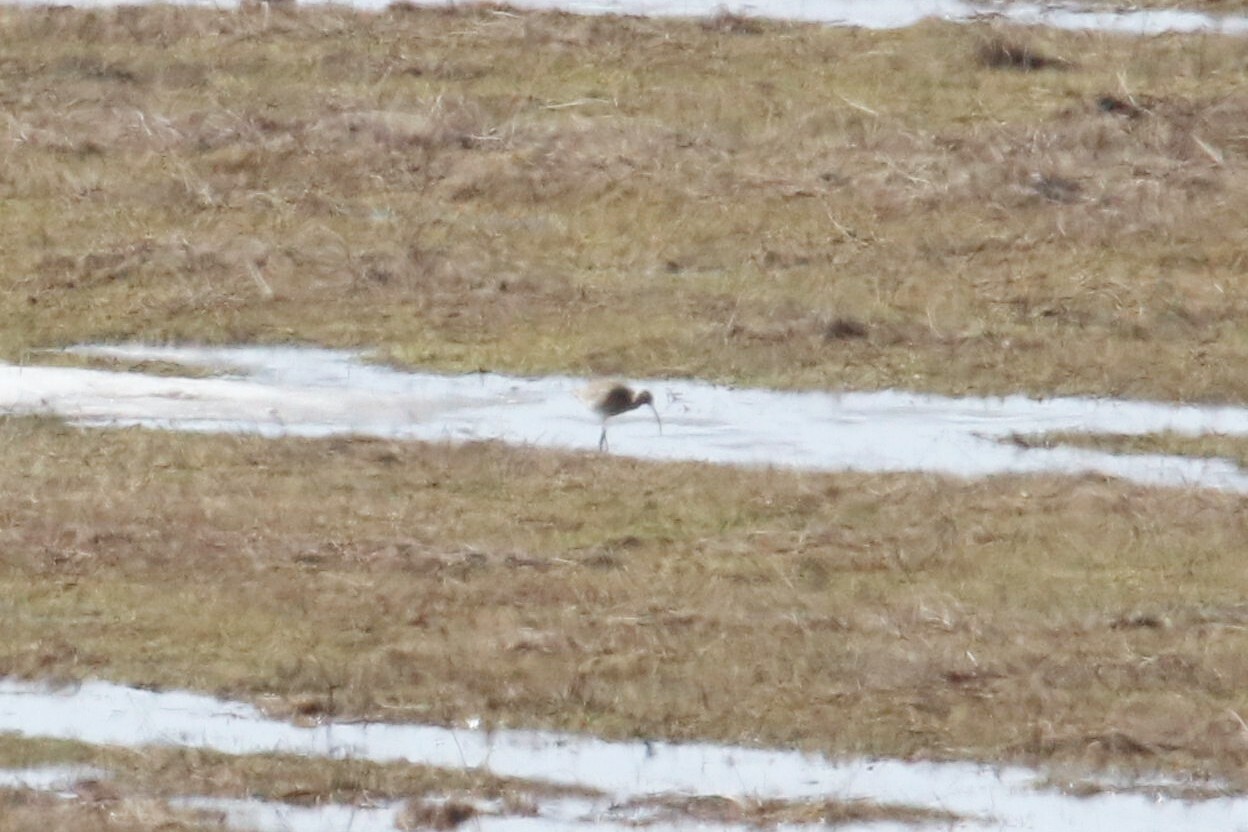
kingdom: Animalia
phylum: Chordata
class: Aves
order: Charadriiformes
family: Scolopacidae
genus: Numenius
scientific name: Numenius arquata
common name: Eurasian curlew
